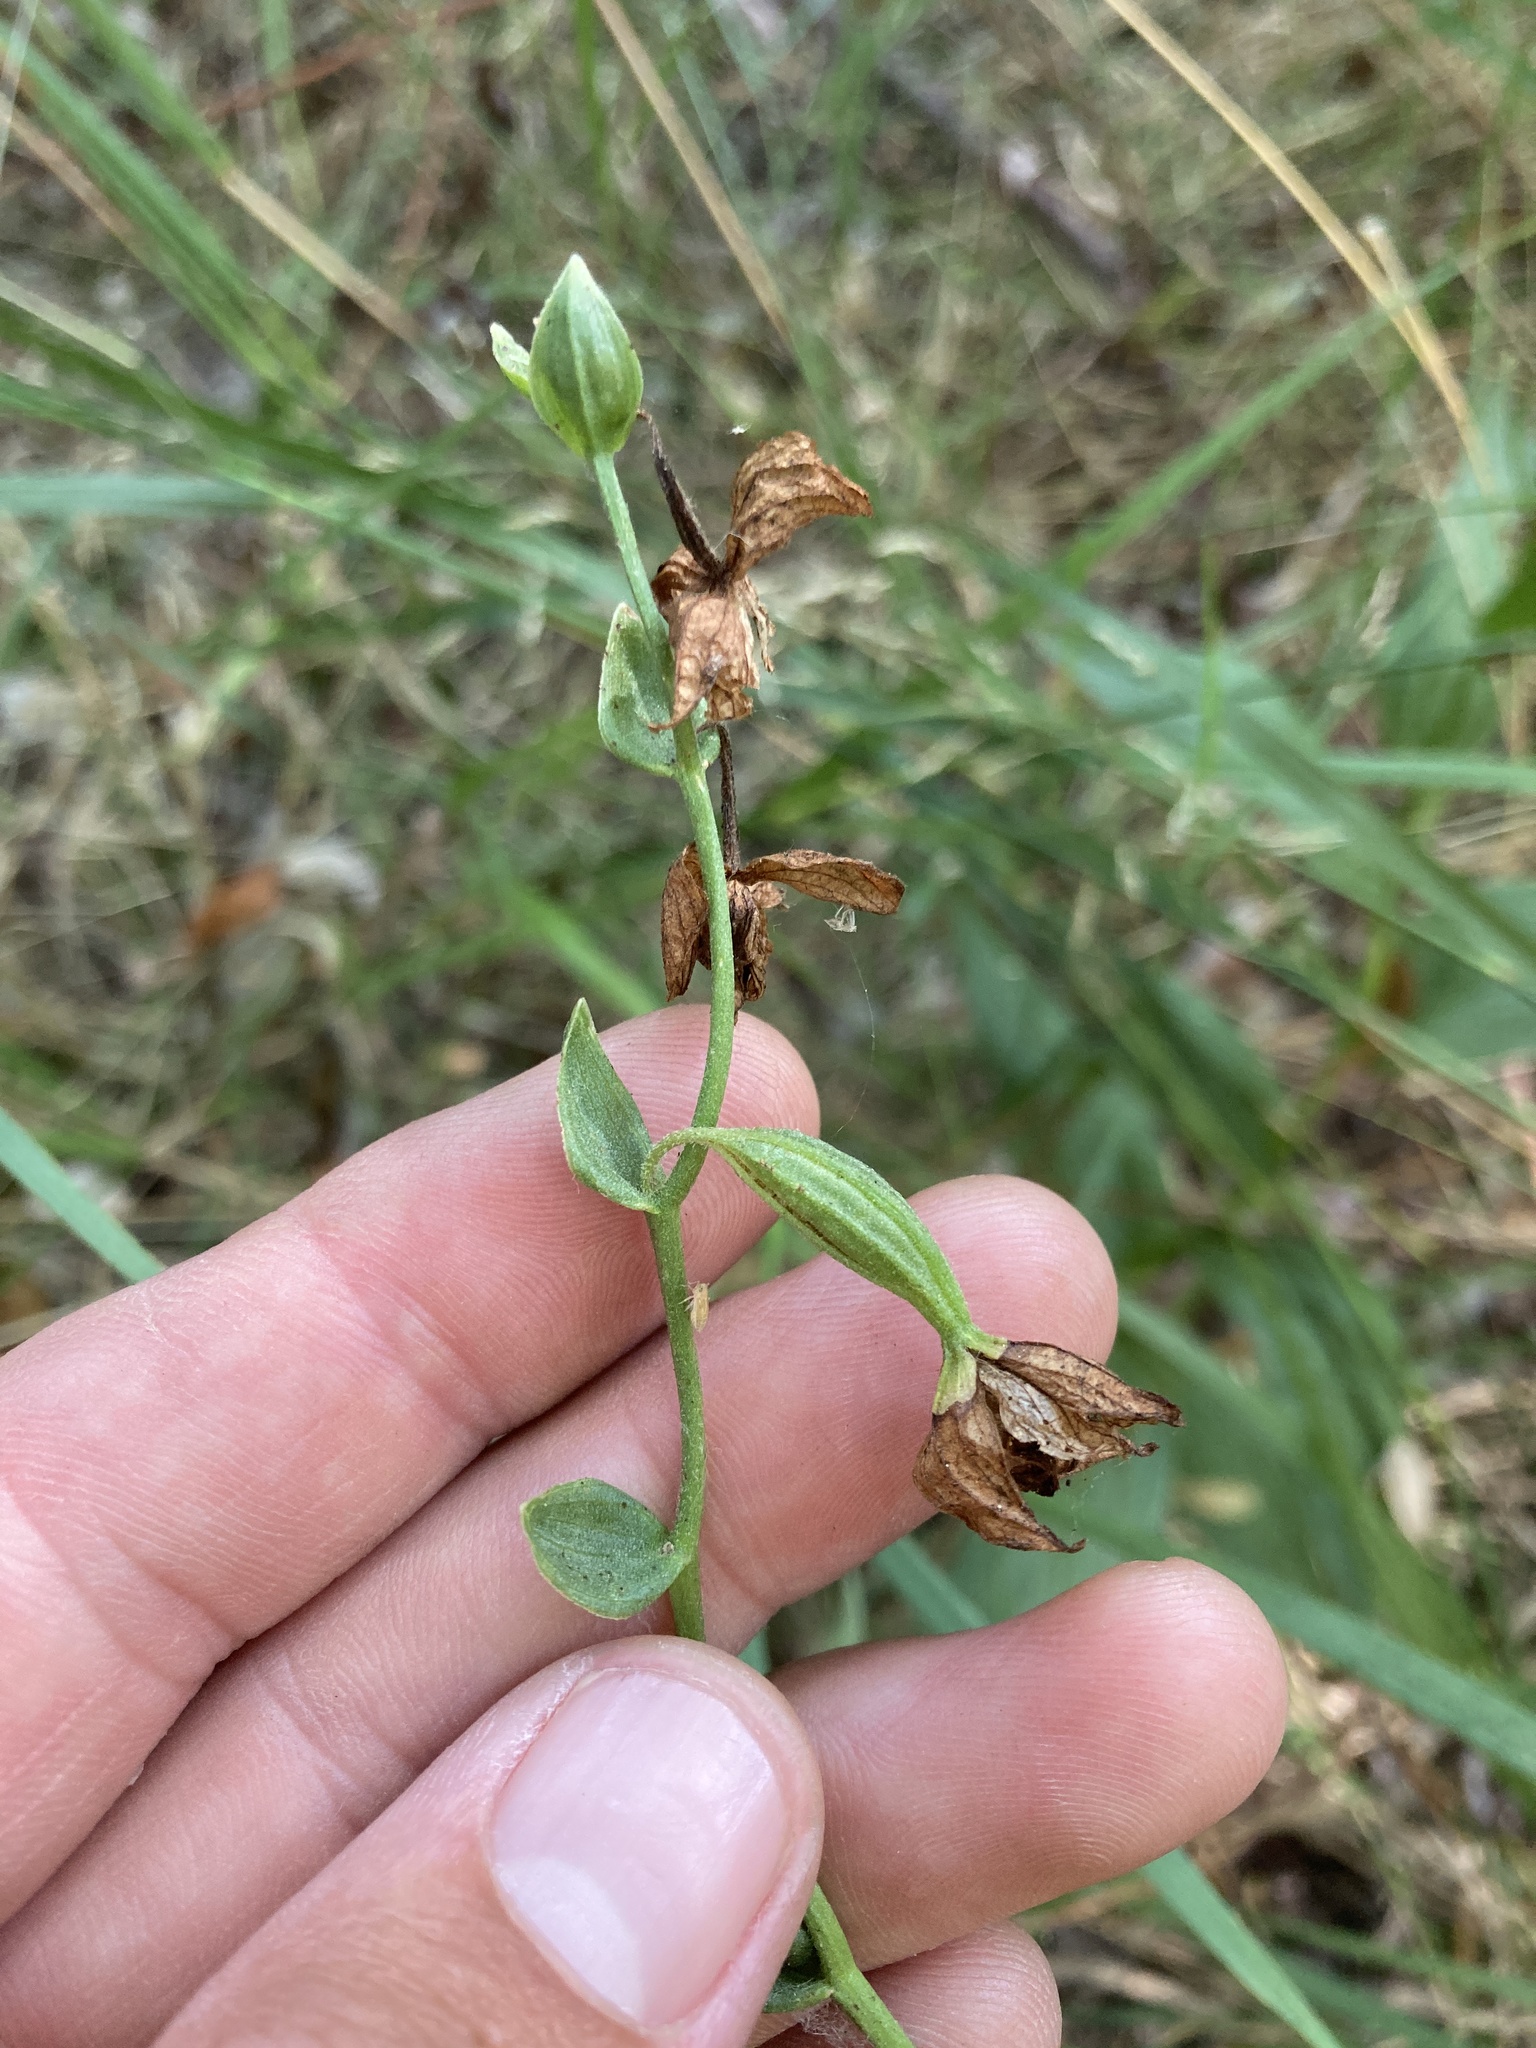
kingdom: Plantae
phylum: Tracheophyta
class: Liliopsida
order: Asparagales
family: Orchidaceae
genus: Epipactis
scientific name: Epipactis gigantea
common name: Chatterbox
